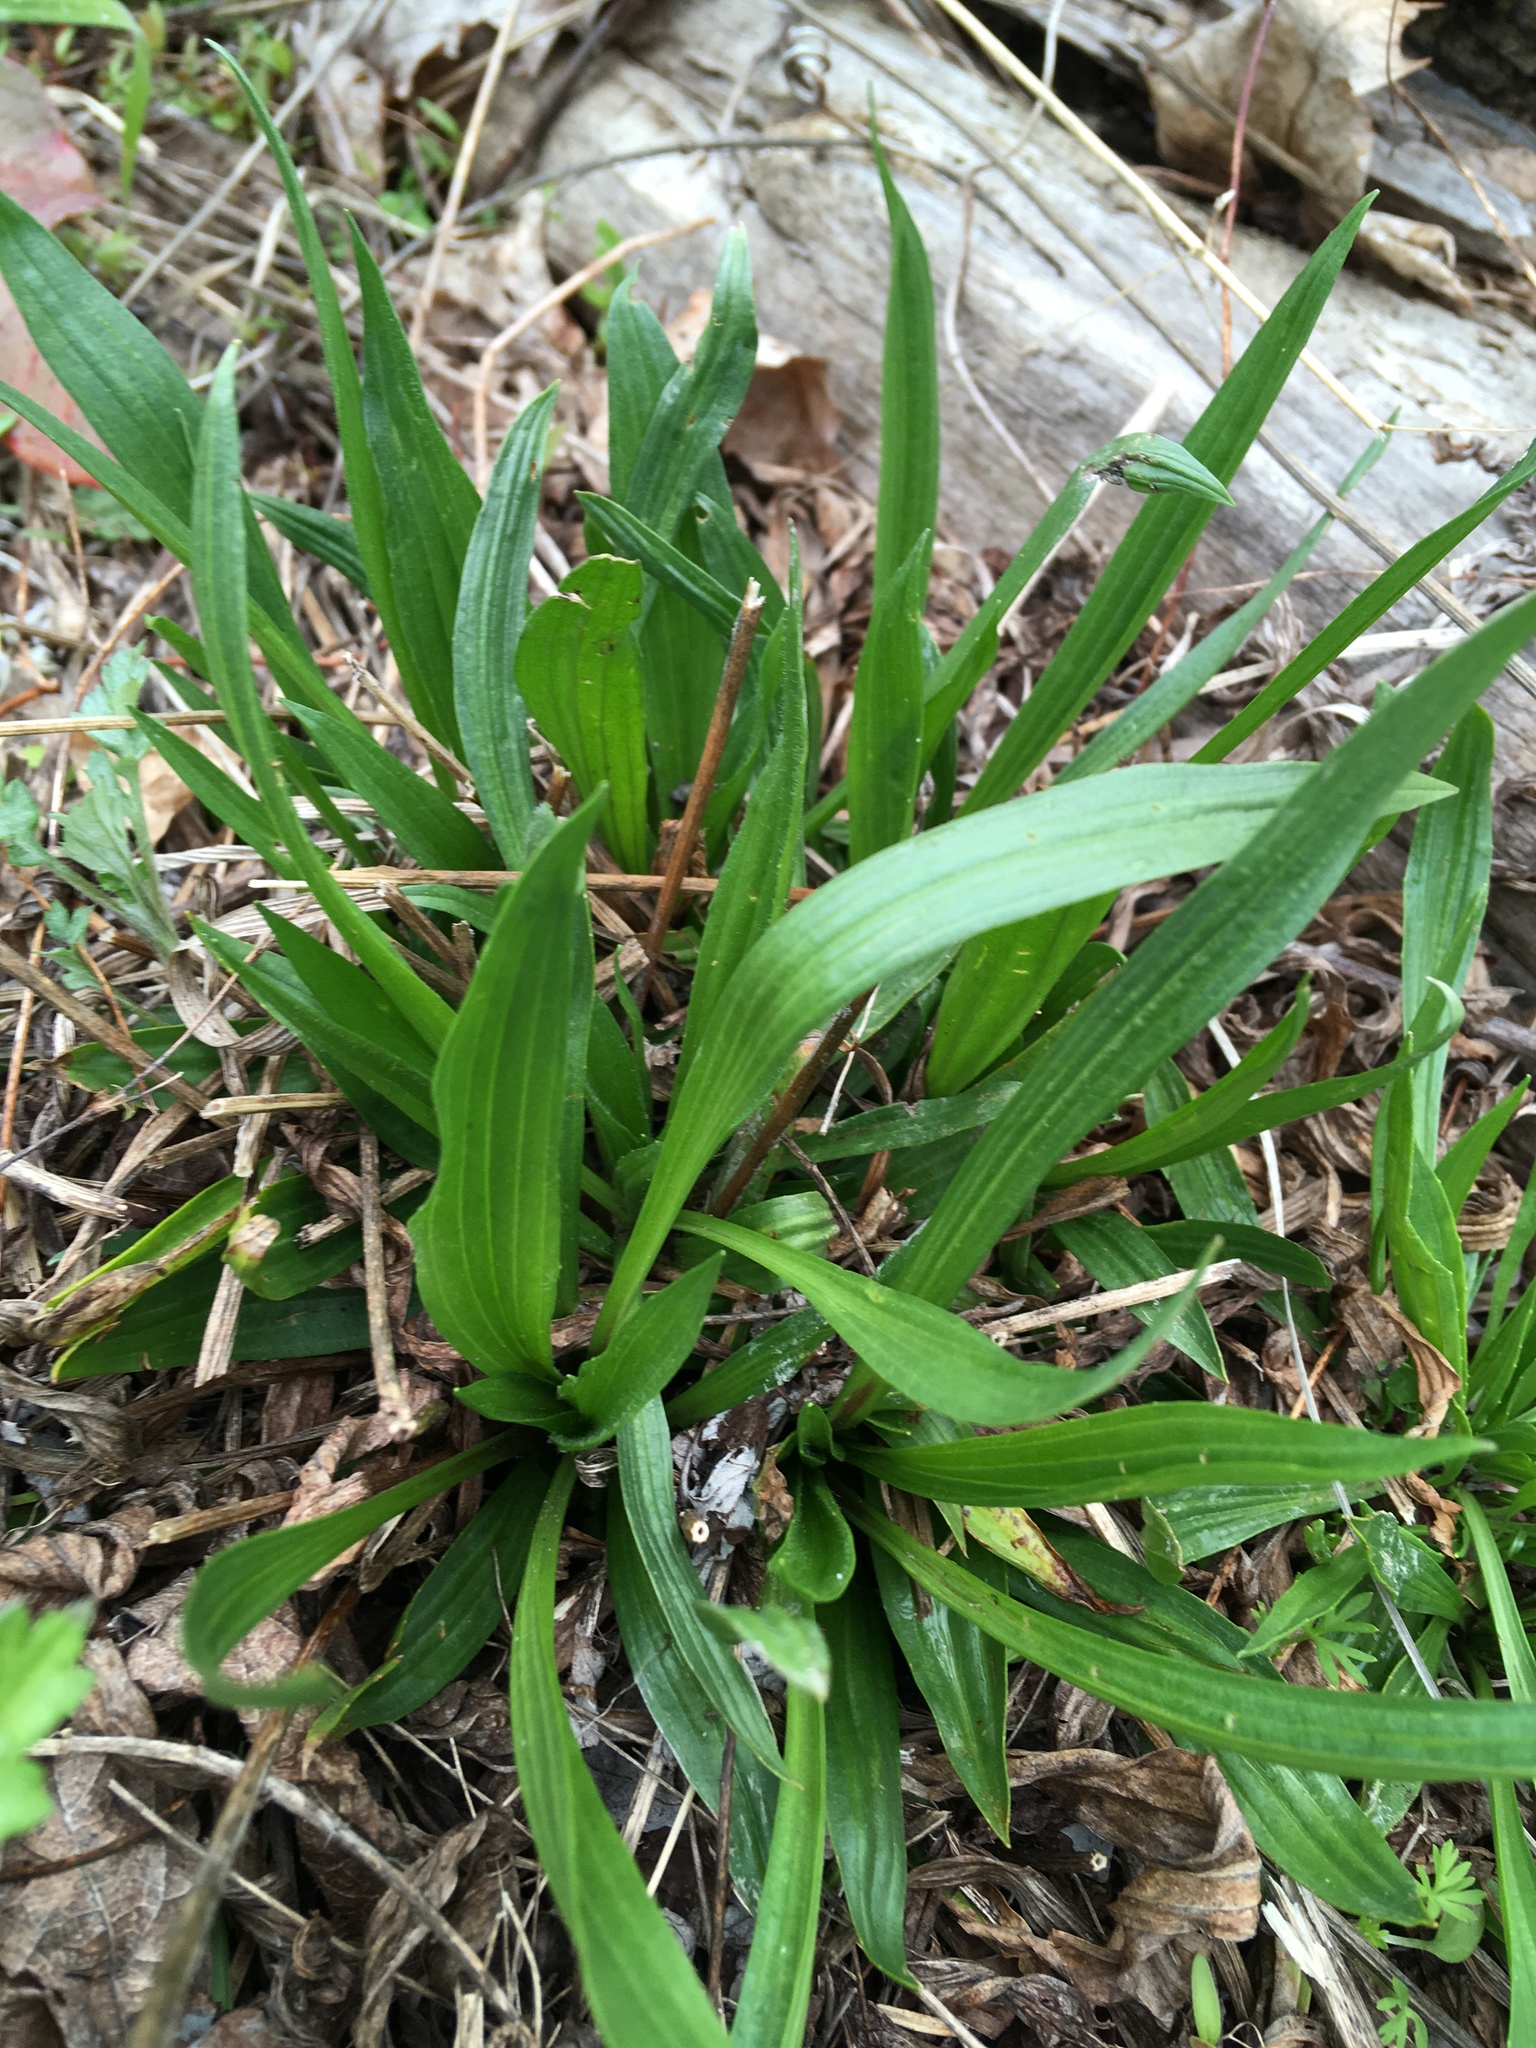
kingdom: Plantae
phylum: Tracheophyta
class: Magnoliopsida
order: Lamiales
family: Plantaginaceae
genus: Plantago
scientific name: Plantago lanceolata
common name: Ribwort plantain
